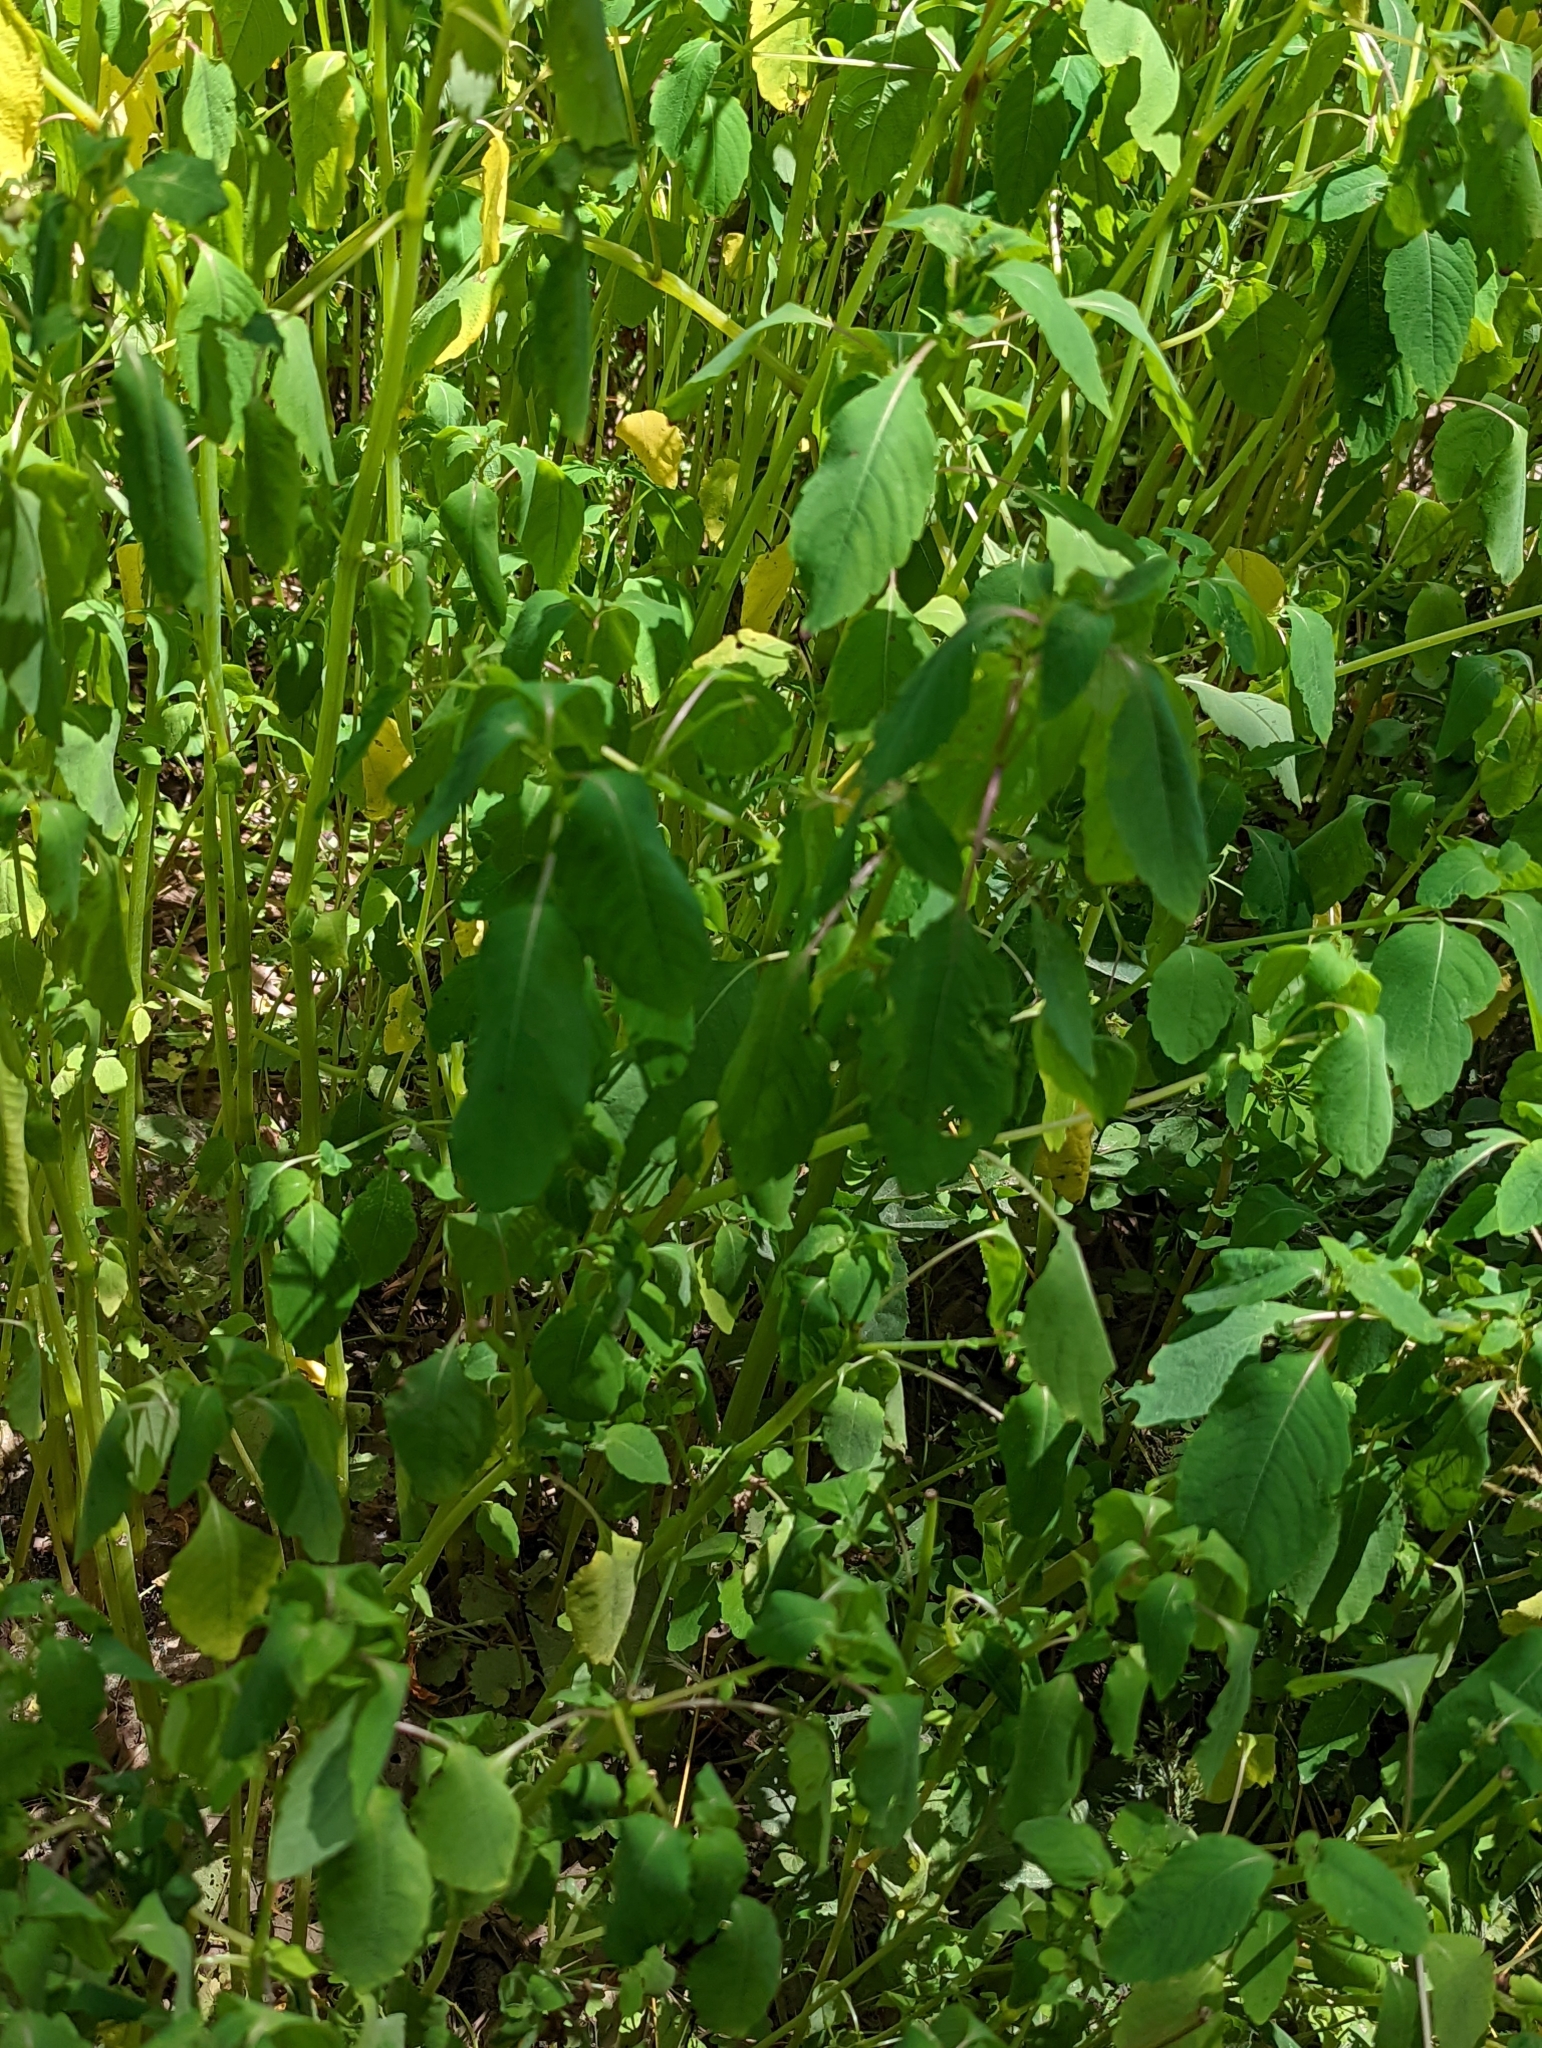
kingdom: Plantae
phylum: Tracheophyta
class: Magnoliopsida
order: Ericales
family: Balsaminaceae
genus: Impatiens
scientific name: Impatiens capensis
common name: Orange balsam
